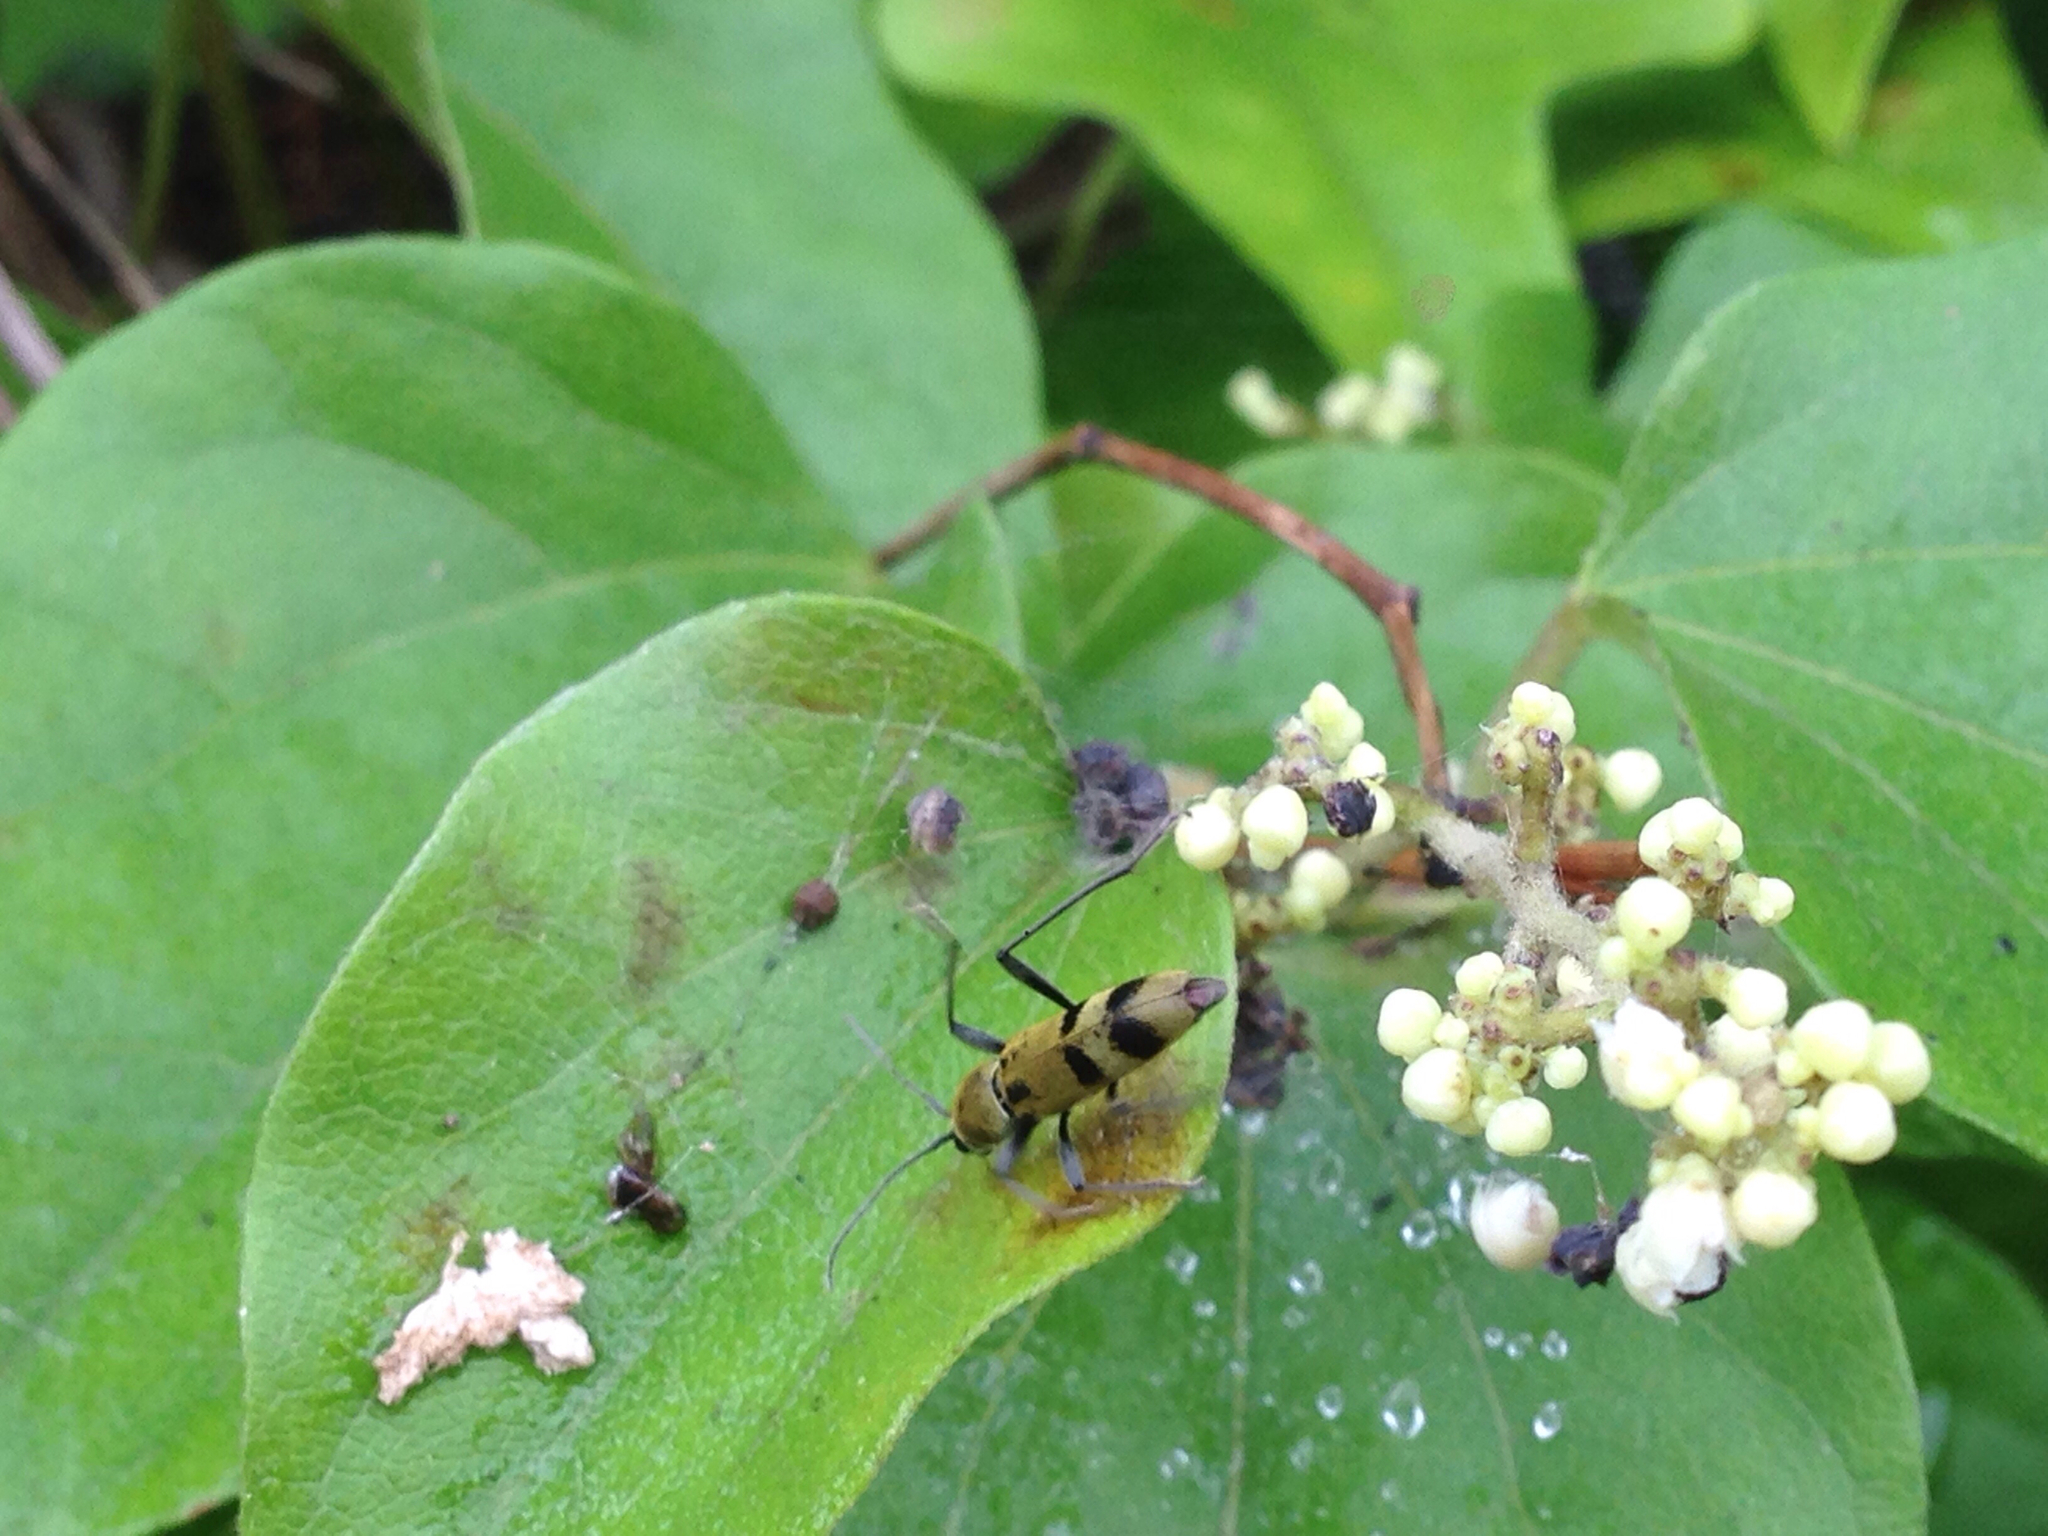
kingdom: Animalia
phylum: Arthropoda
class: Insecta
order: Coleoptera
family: Cerambycidae
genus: Chlorophorus
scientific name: Chlorophorus muscosus
